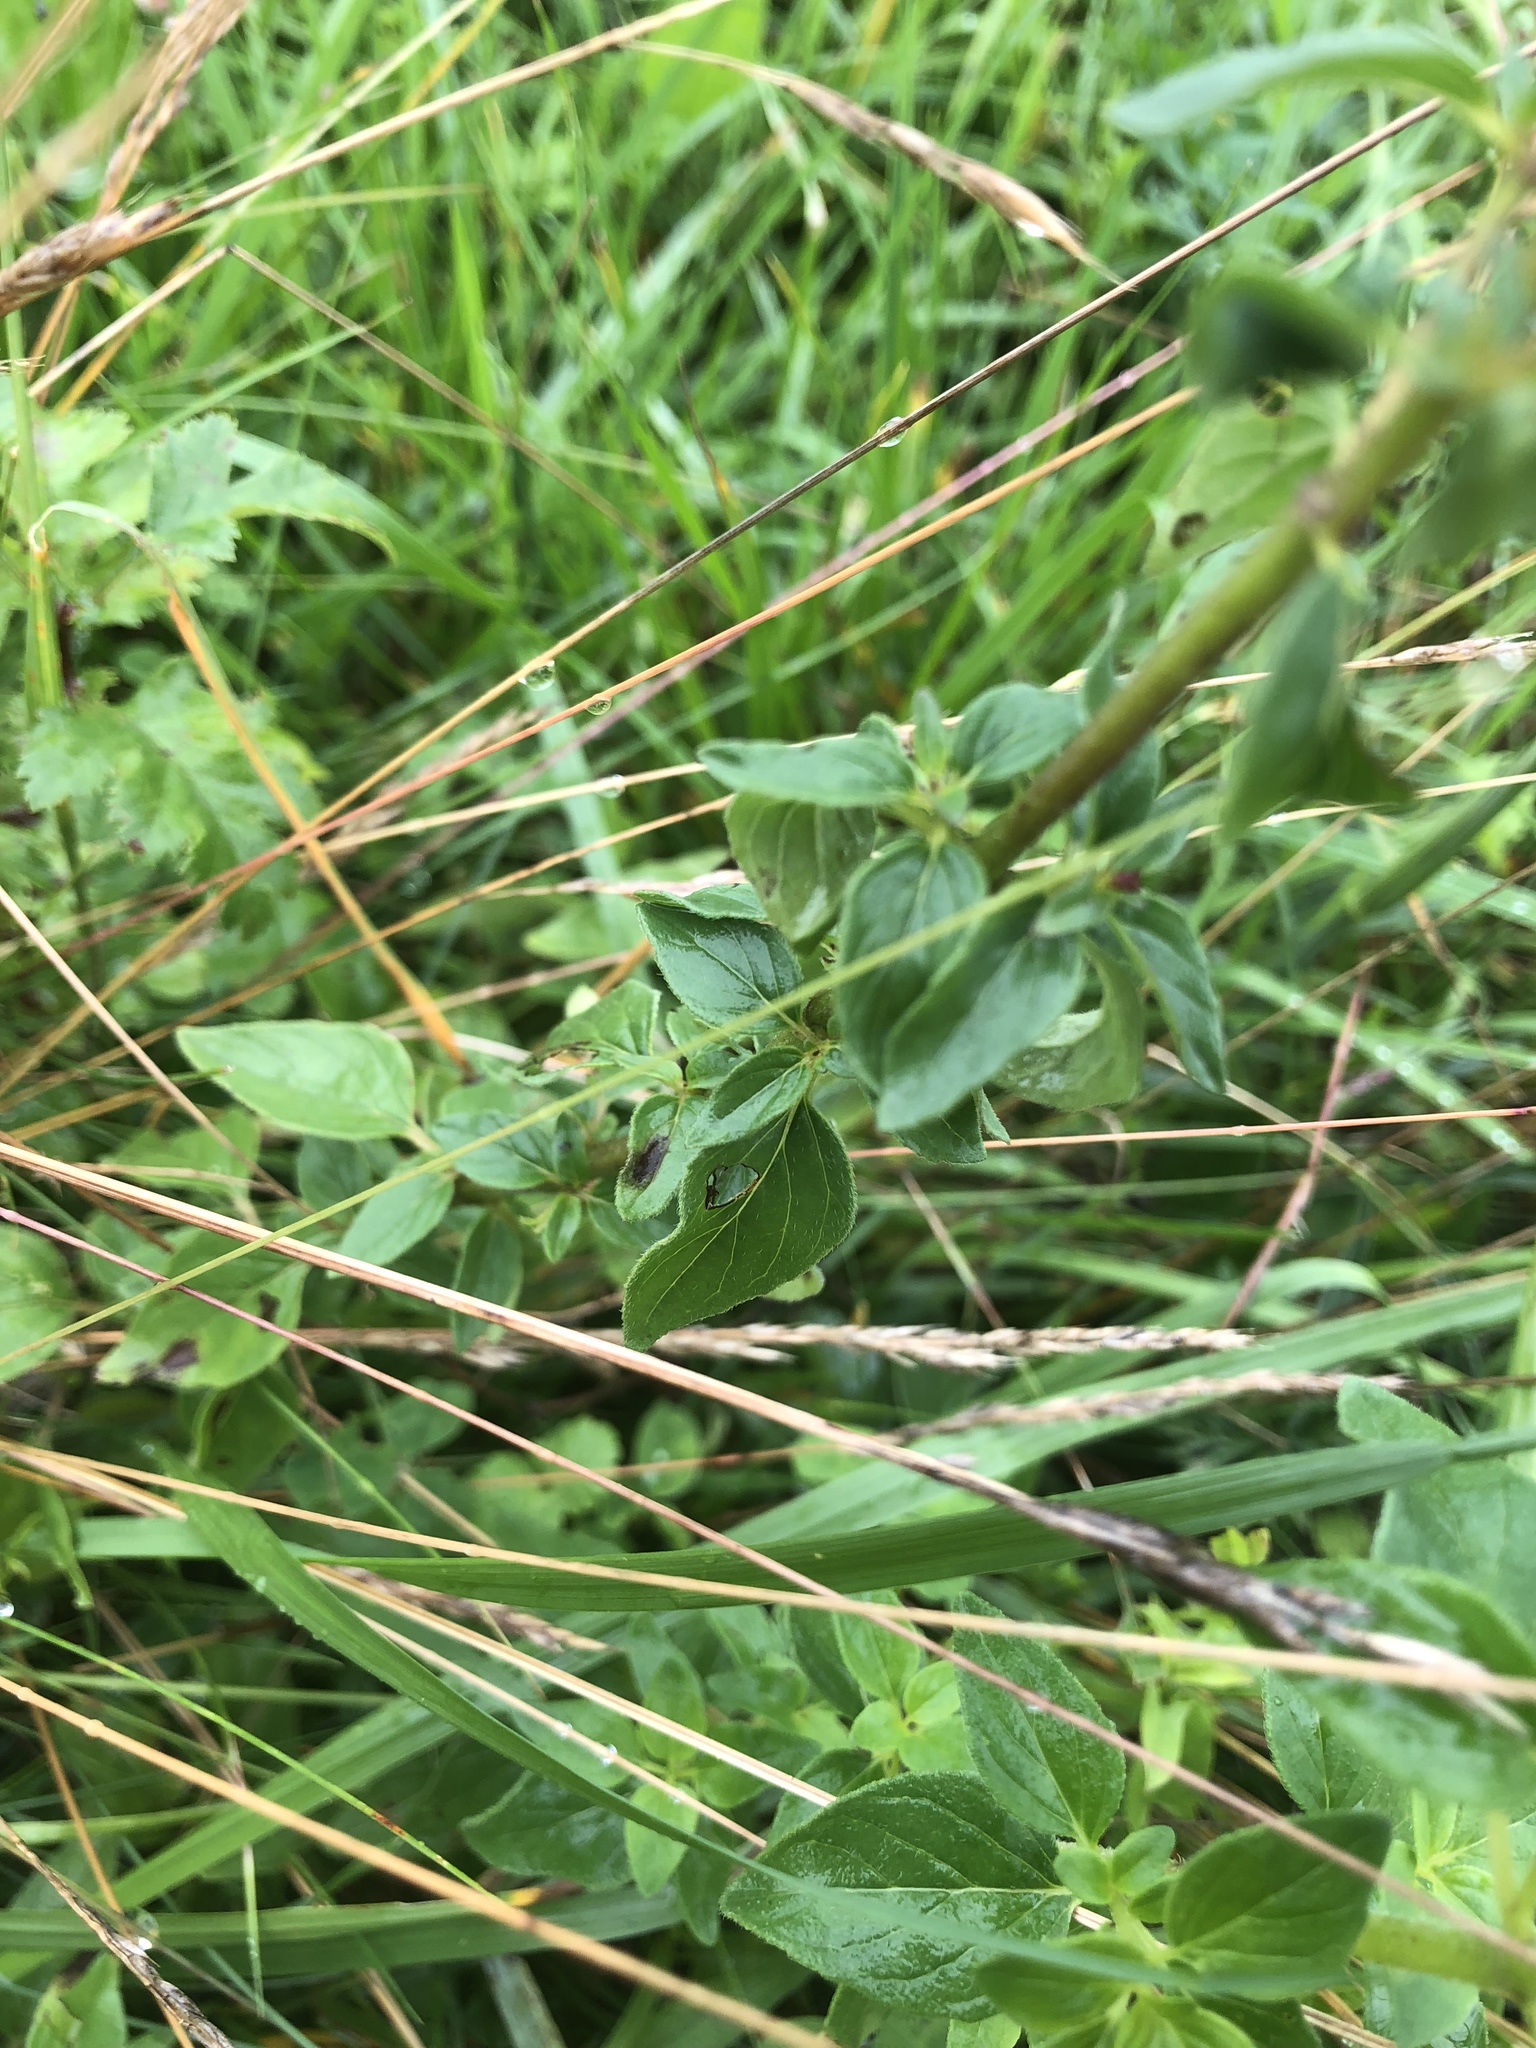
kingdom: Plantae
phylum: Tracheophyta
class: Magnoliopsida
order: Lamiales
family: Lamiaceae
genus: Origanum
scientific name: Origanum vulgare
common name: Wild marjoram
